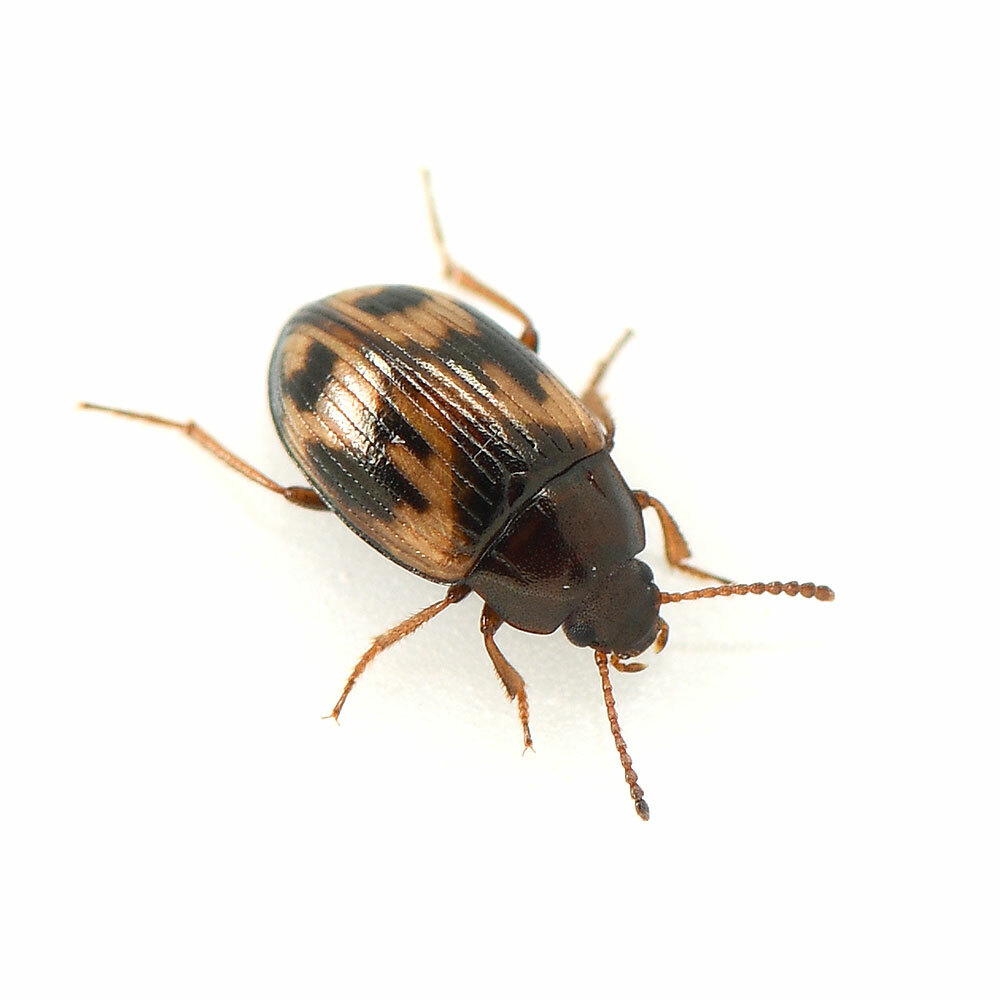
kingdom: Animalia
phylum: Arthropoda
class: Insecta
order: Coleoptera
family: Tenebrionidae
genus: Phaleromela
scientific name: Phaleromela variegata
